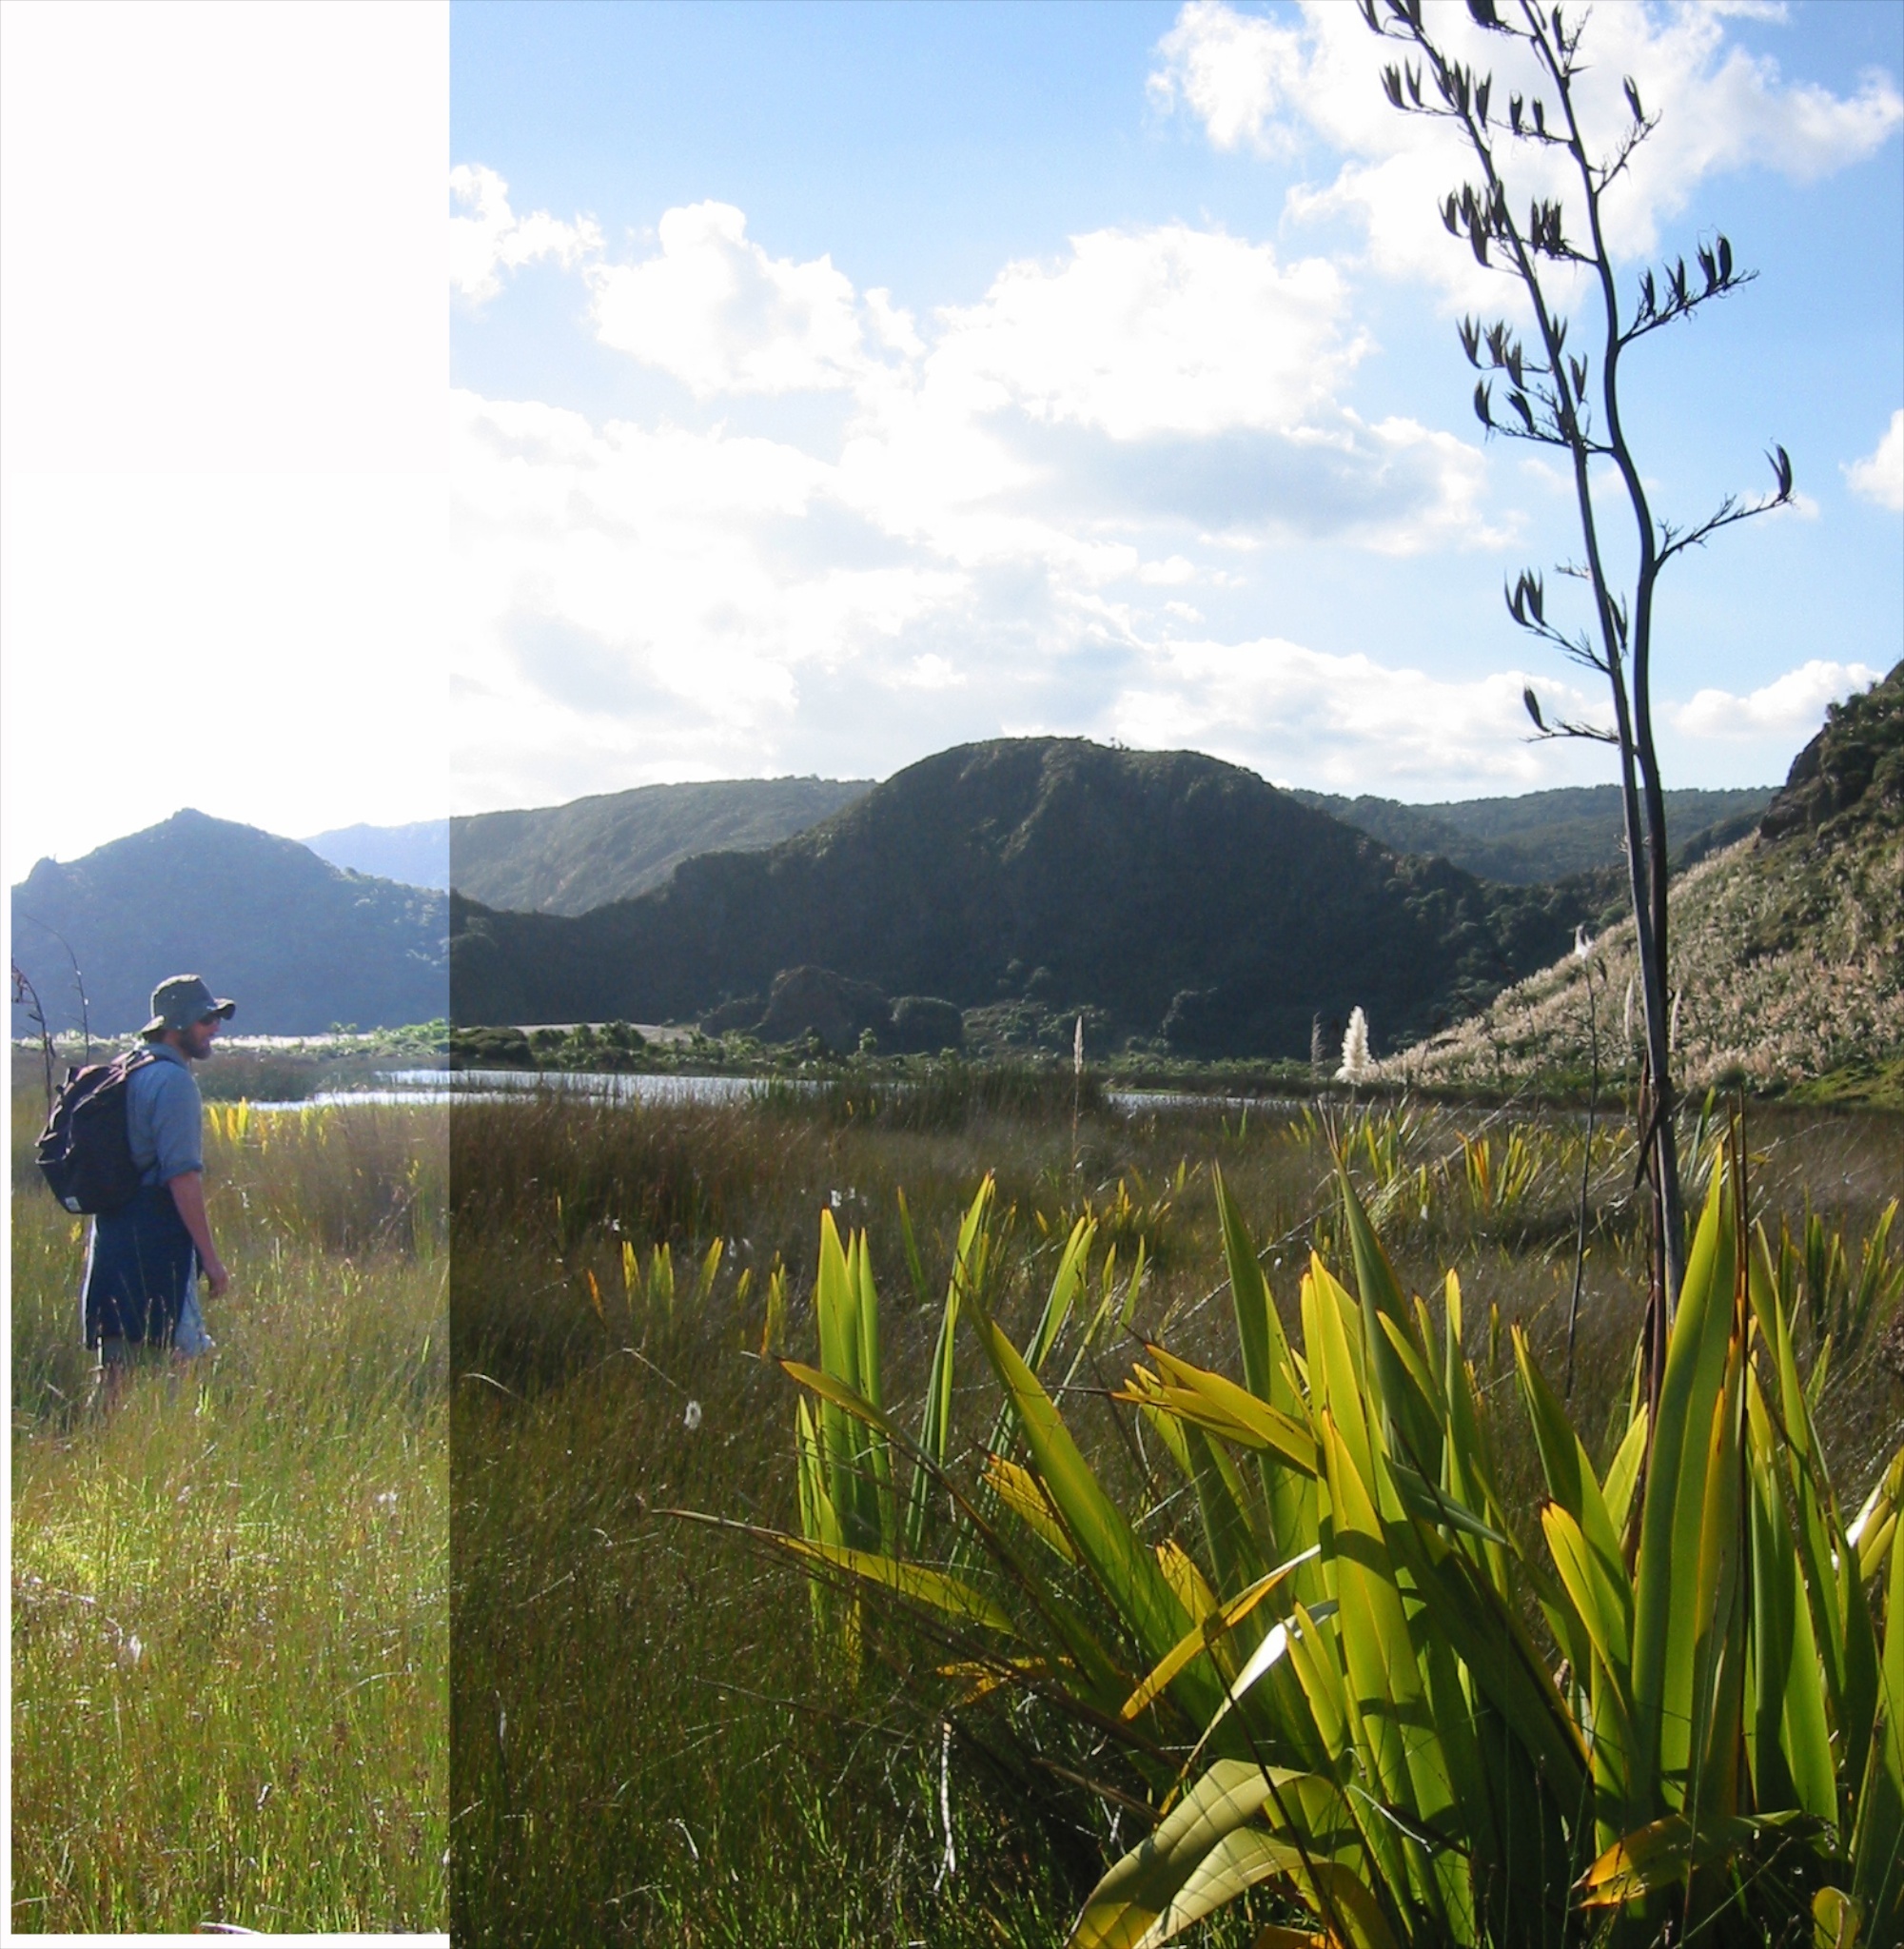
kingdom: Plantae
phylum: Tracheophyta
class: Liliopsida
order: Asparagales
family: Asphodelaceae
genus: Phormium
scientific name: Phormium tenax
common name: New zealand flax
